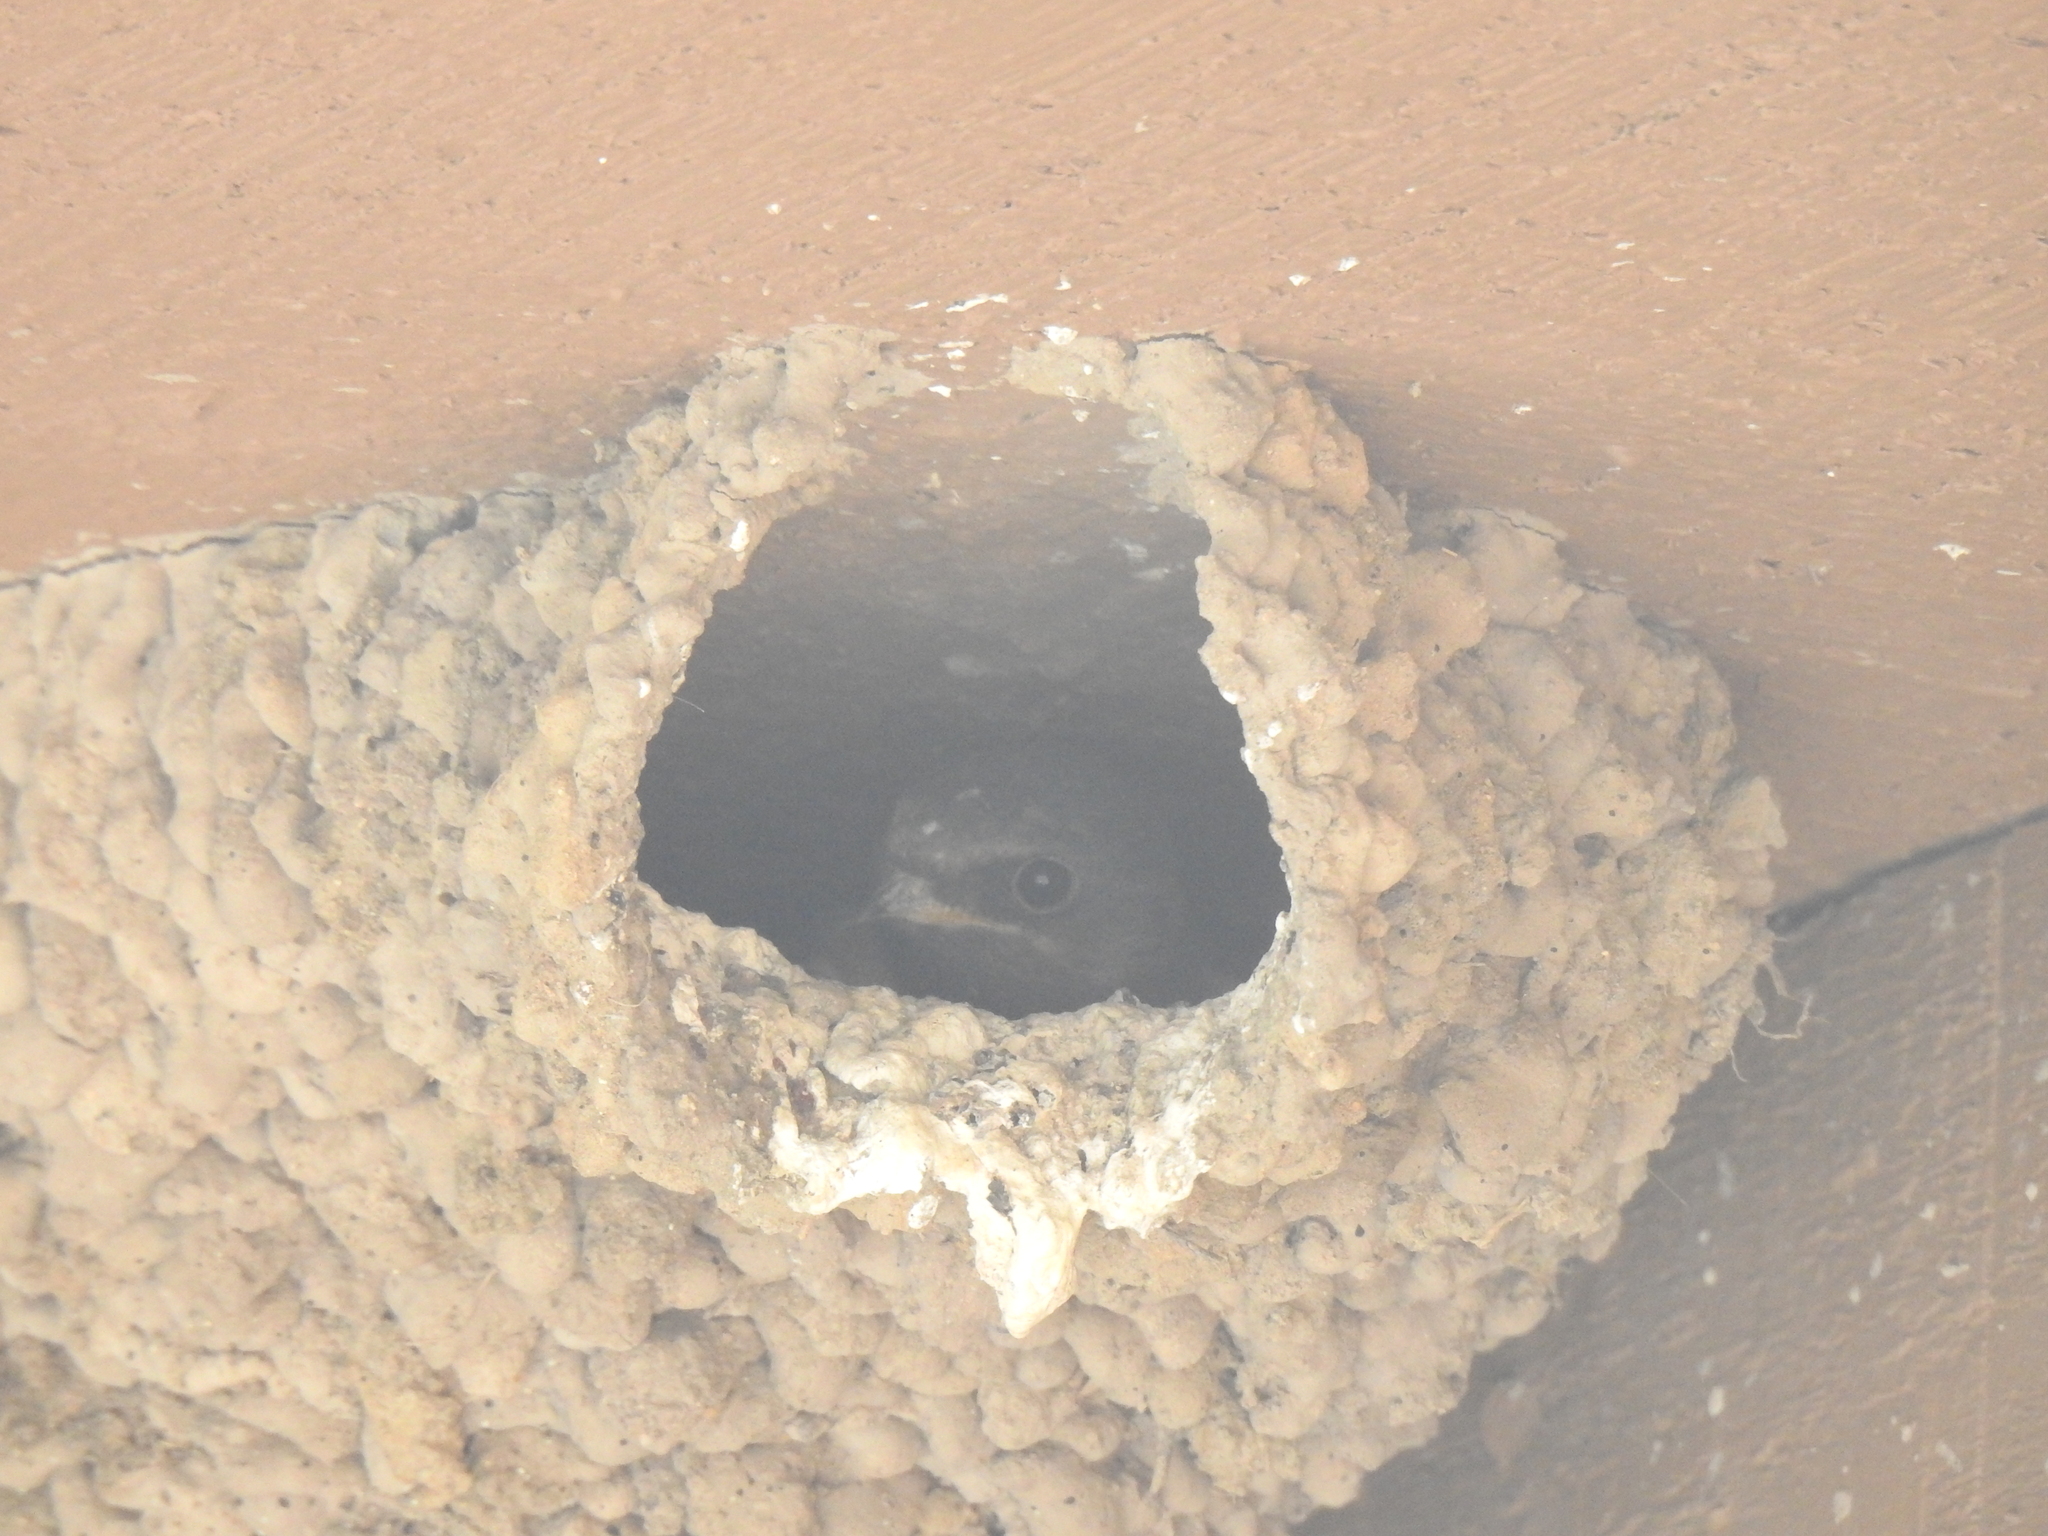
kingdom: Animalia
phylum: Chordata
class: Aves
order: Passeriformes
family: Hirundinidae
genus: Petrochelidon
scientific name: Petrochelidon pyrrhonota
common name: American cliff swallow
